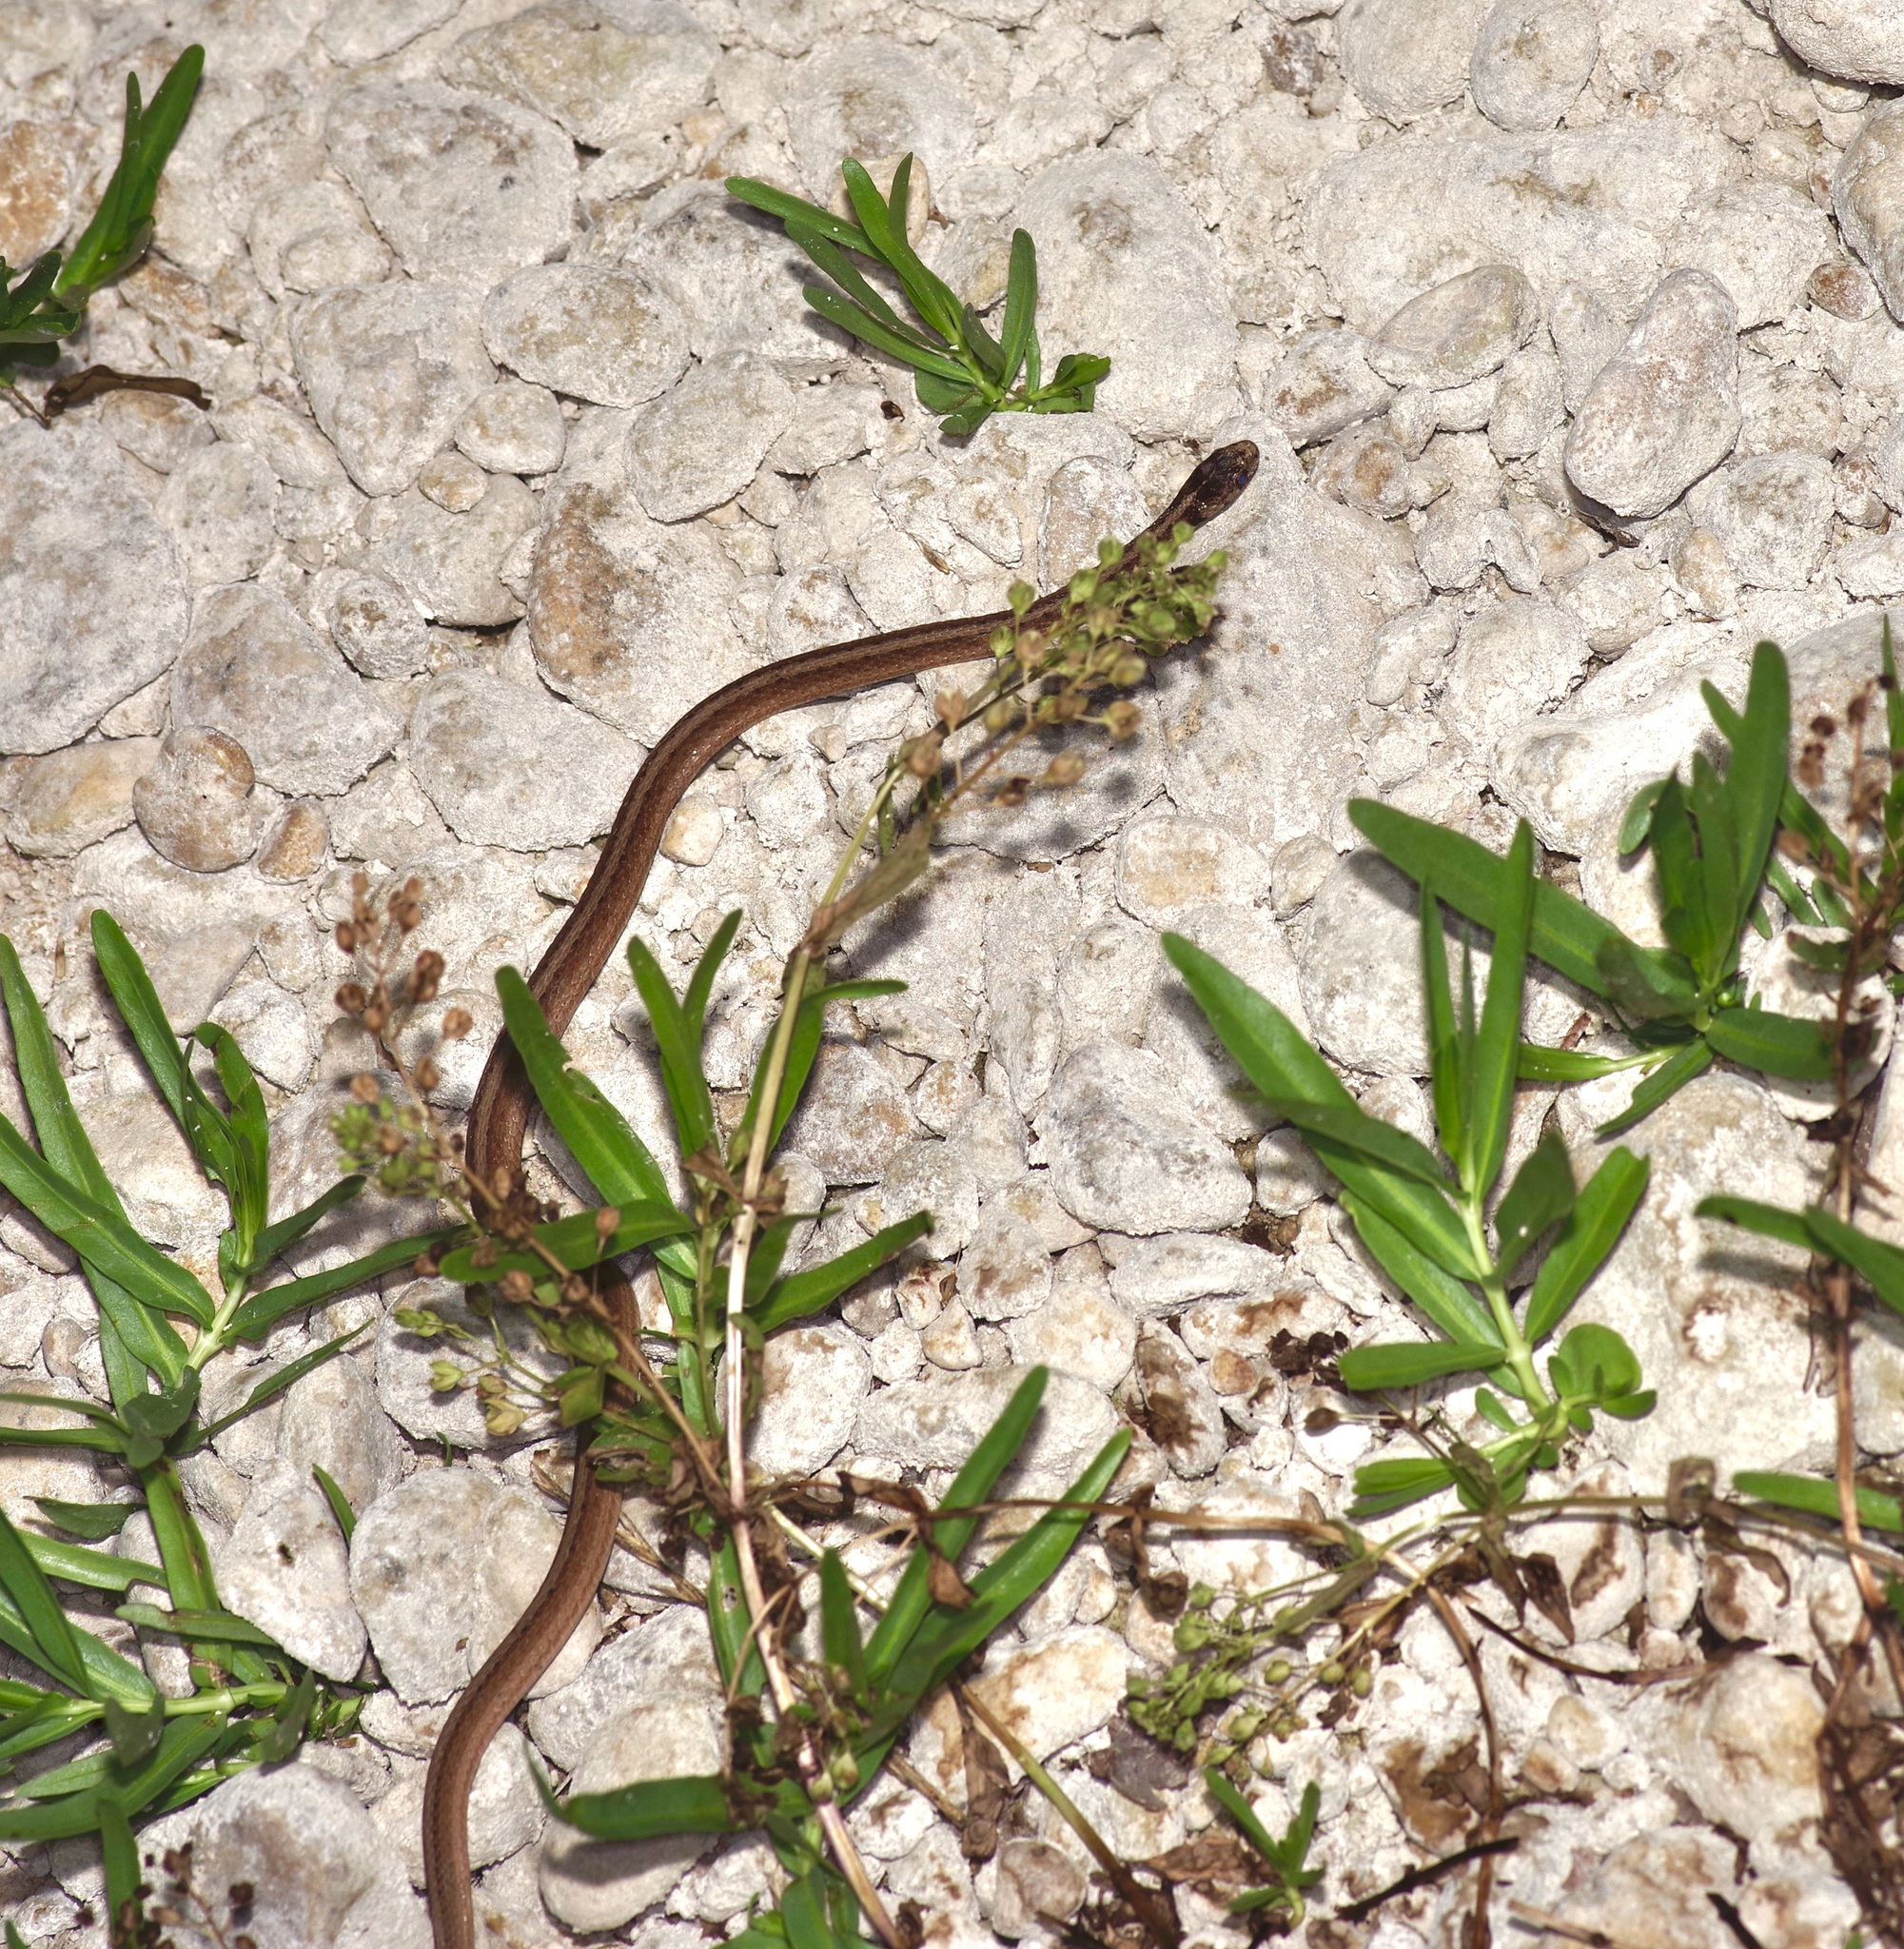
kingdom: Animalia
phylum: Chordata
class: Squamata
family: Colubridae
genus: Storeria
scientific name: Storeria dekayi
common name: (dekay’s) brown snake
